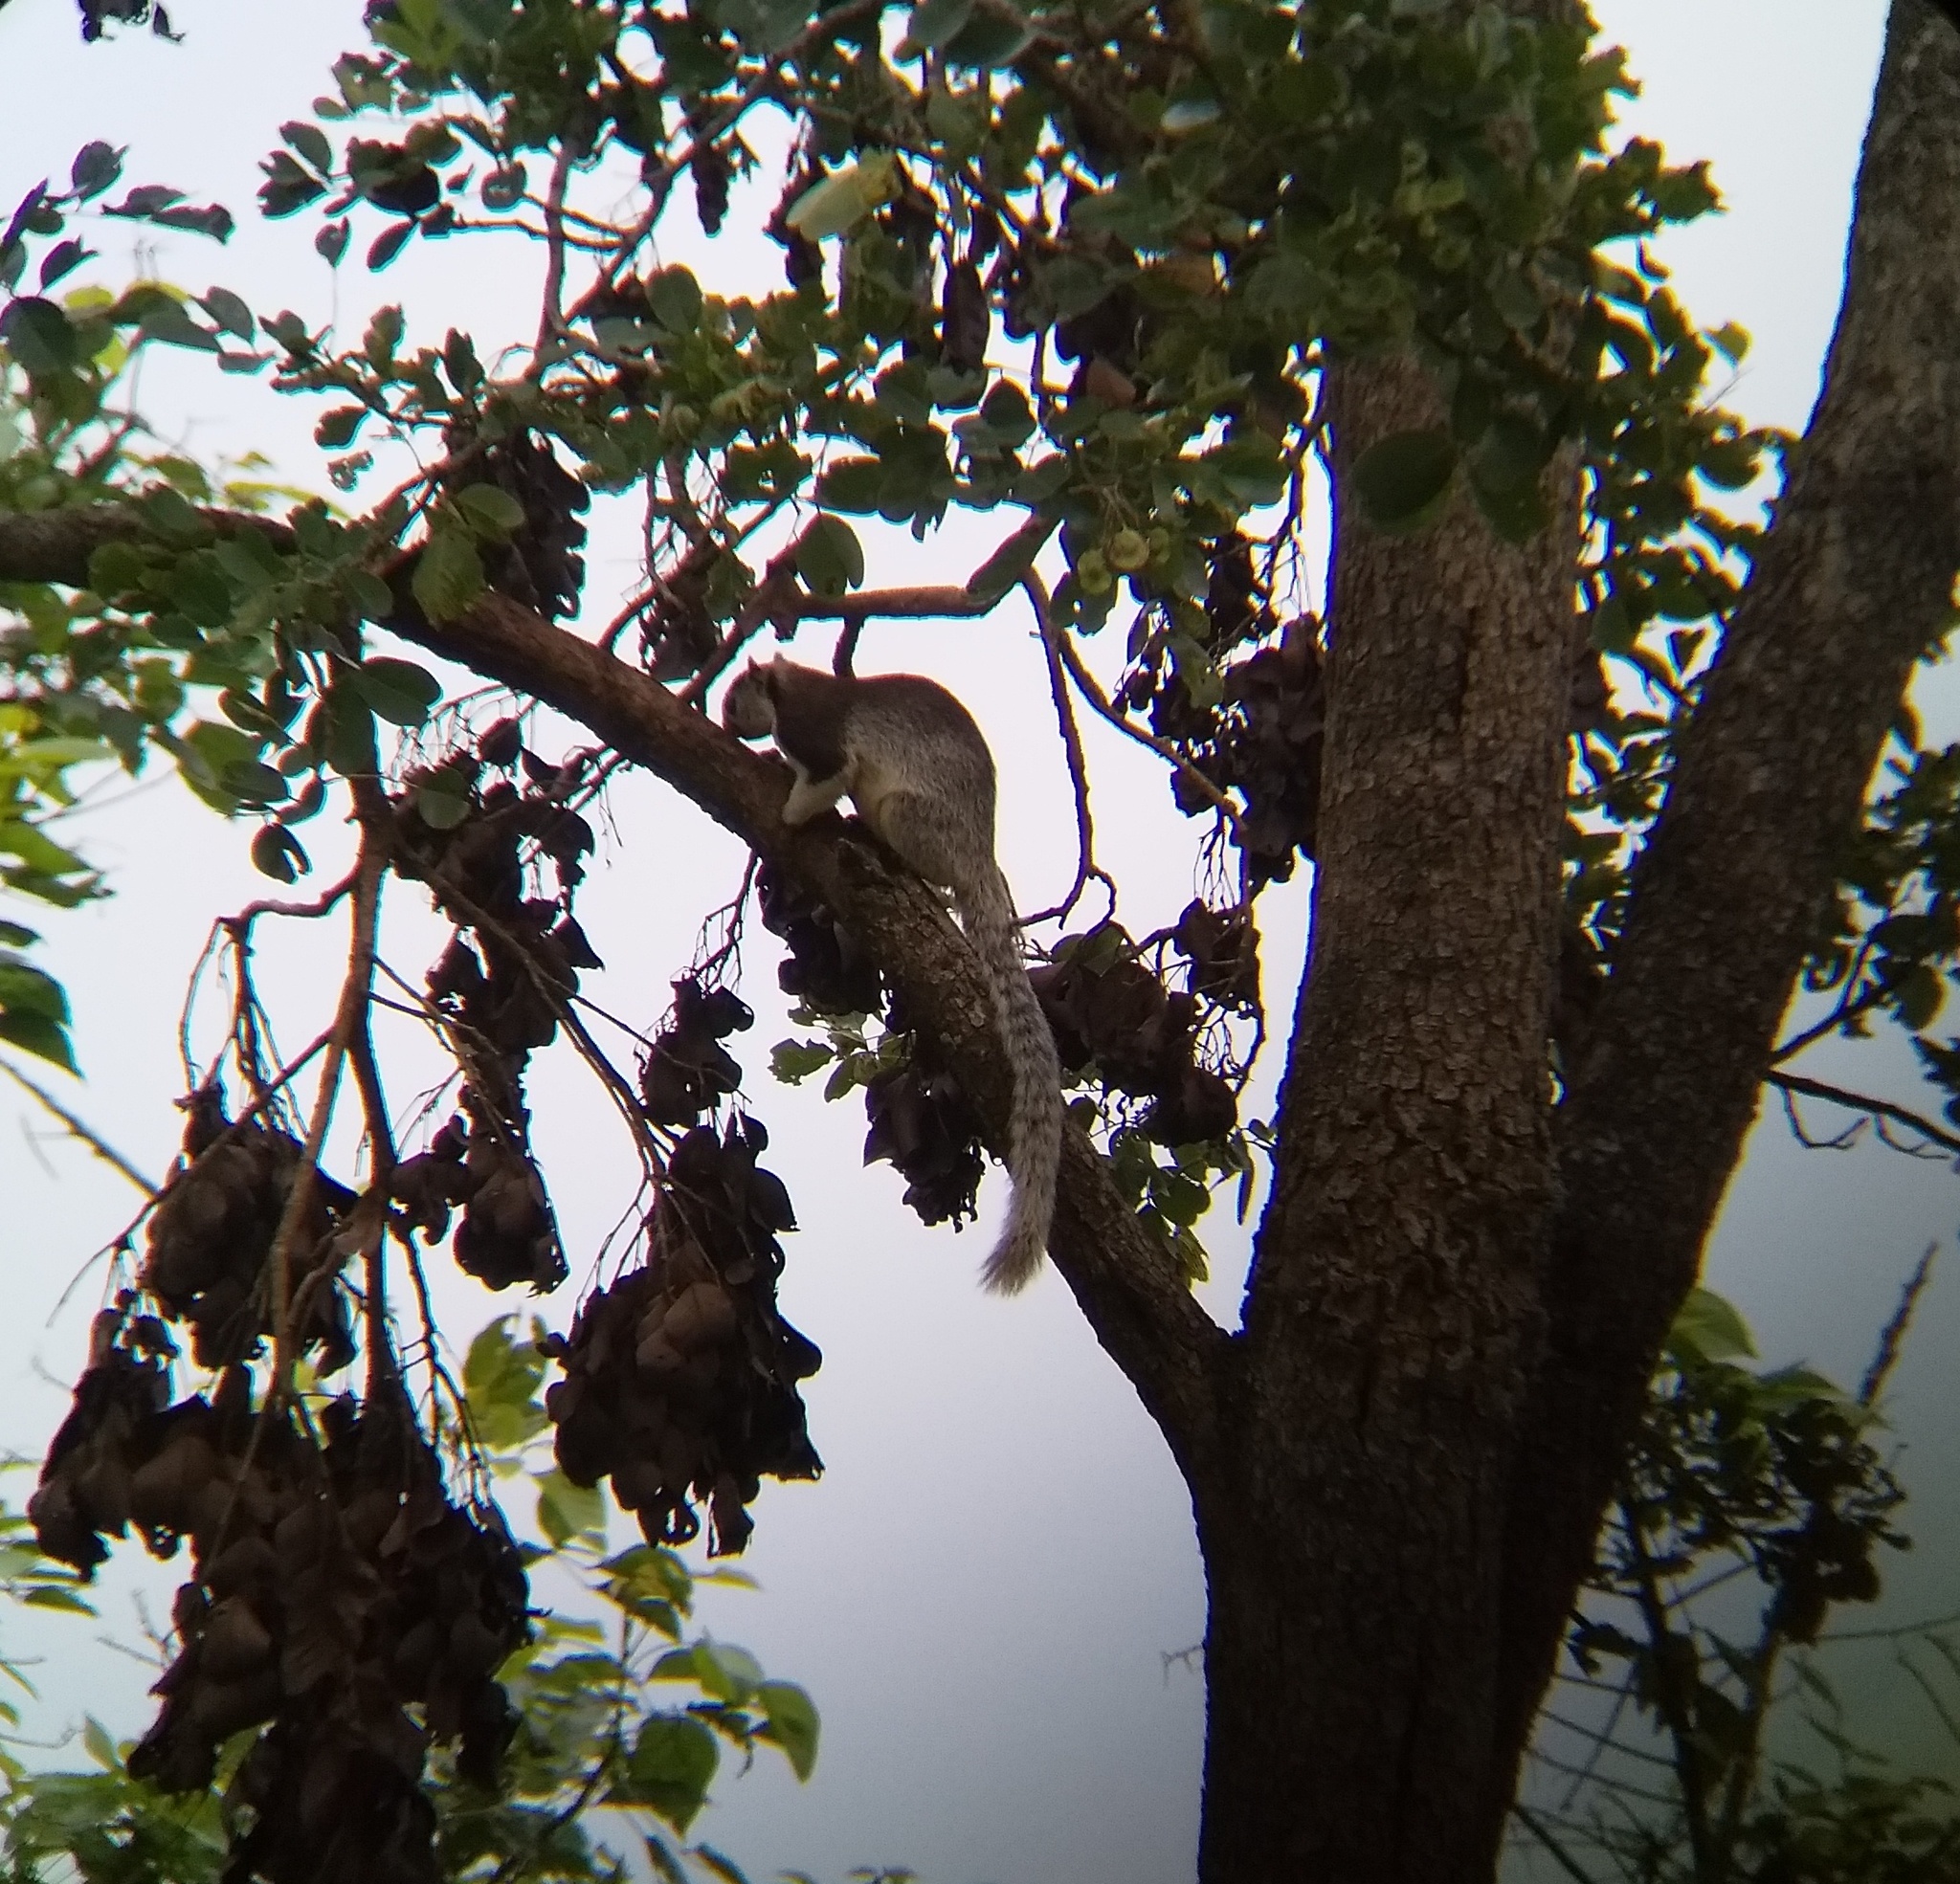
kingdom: Animalia
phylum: Chordata
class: Mammalia
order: Rodentia
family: Sciuridae
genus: Ratufa
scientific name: Ratufa macroura
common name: Sri lankan giant squirrel
